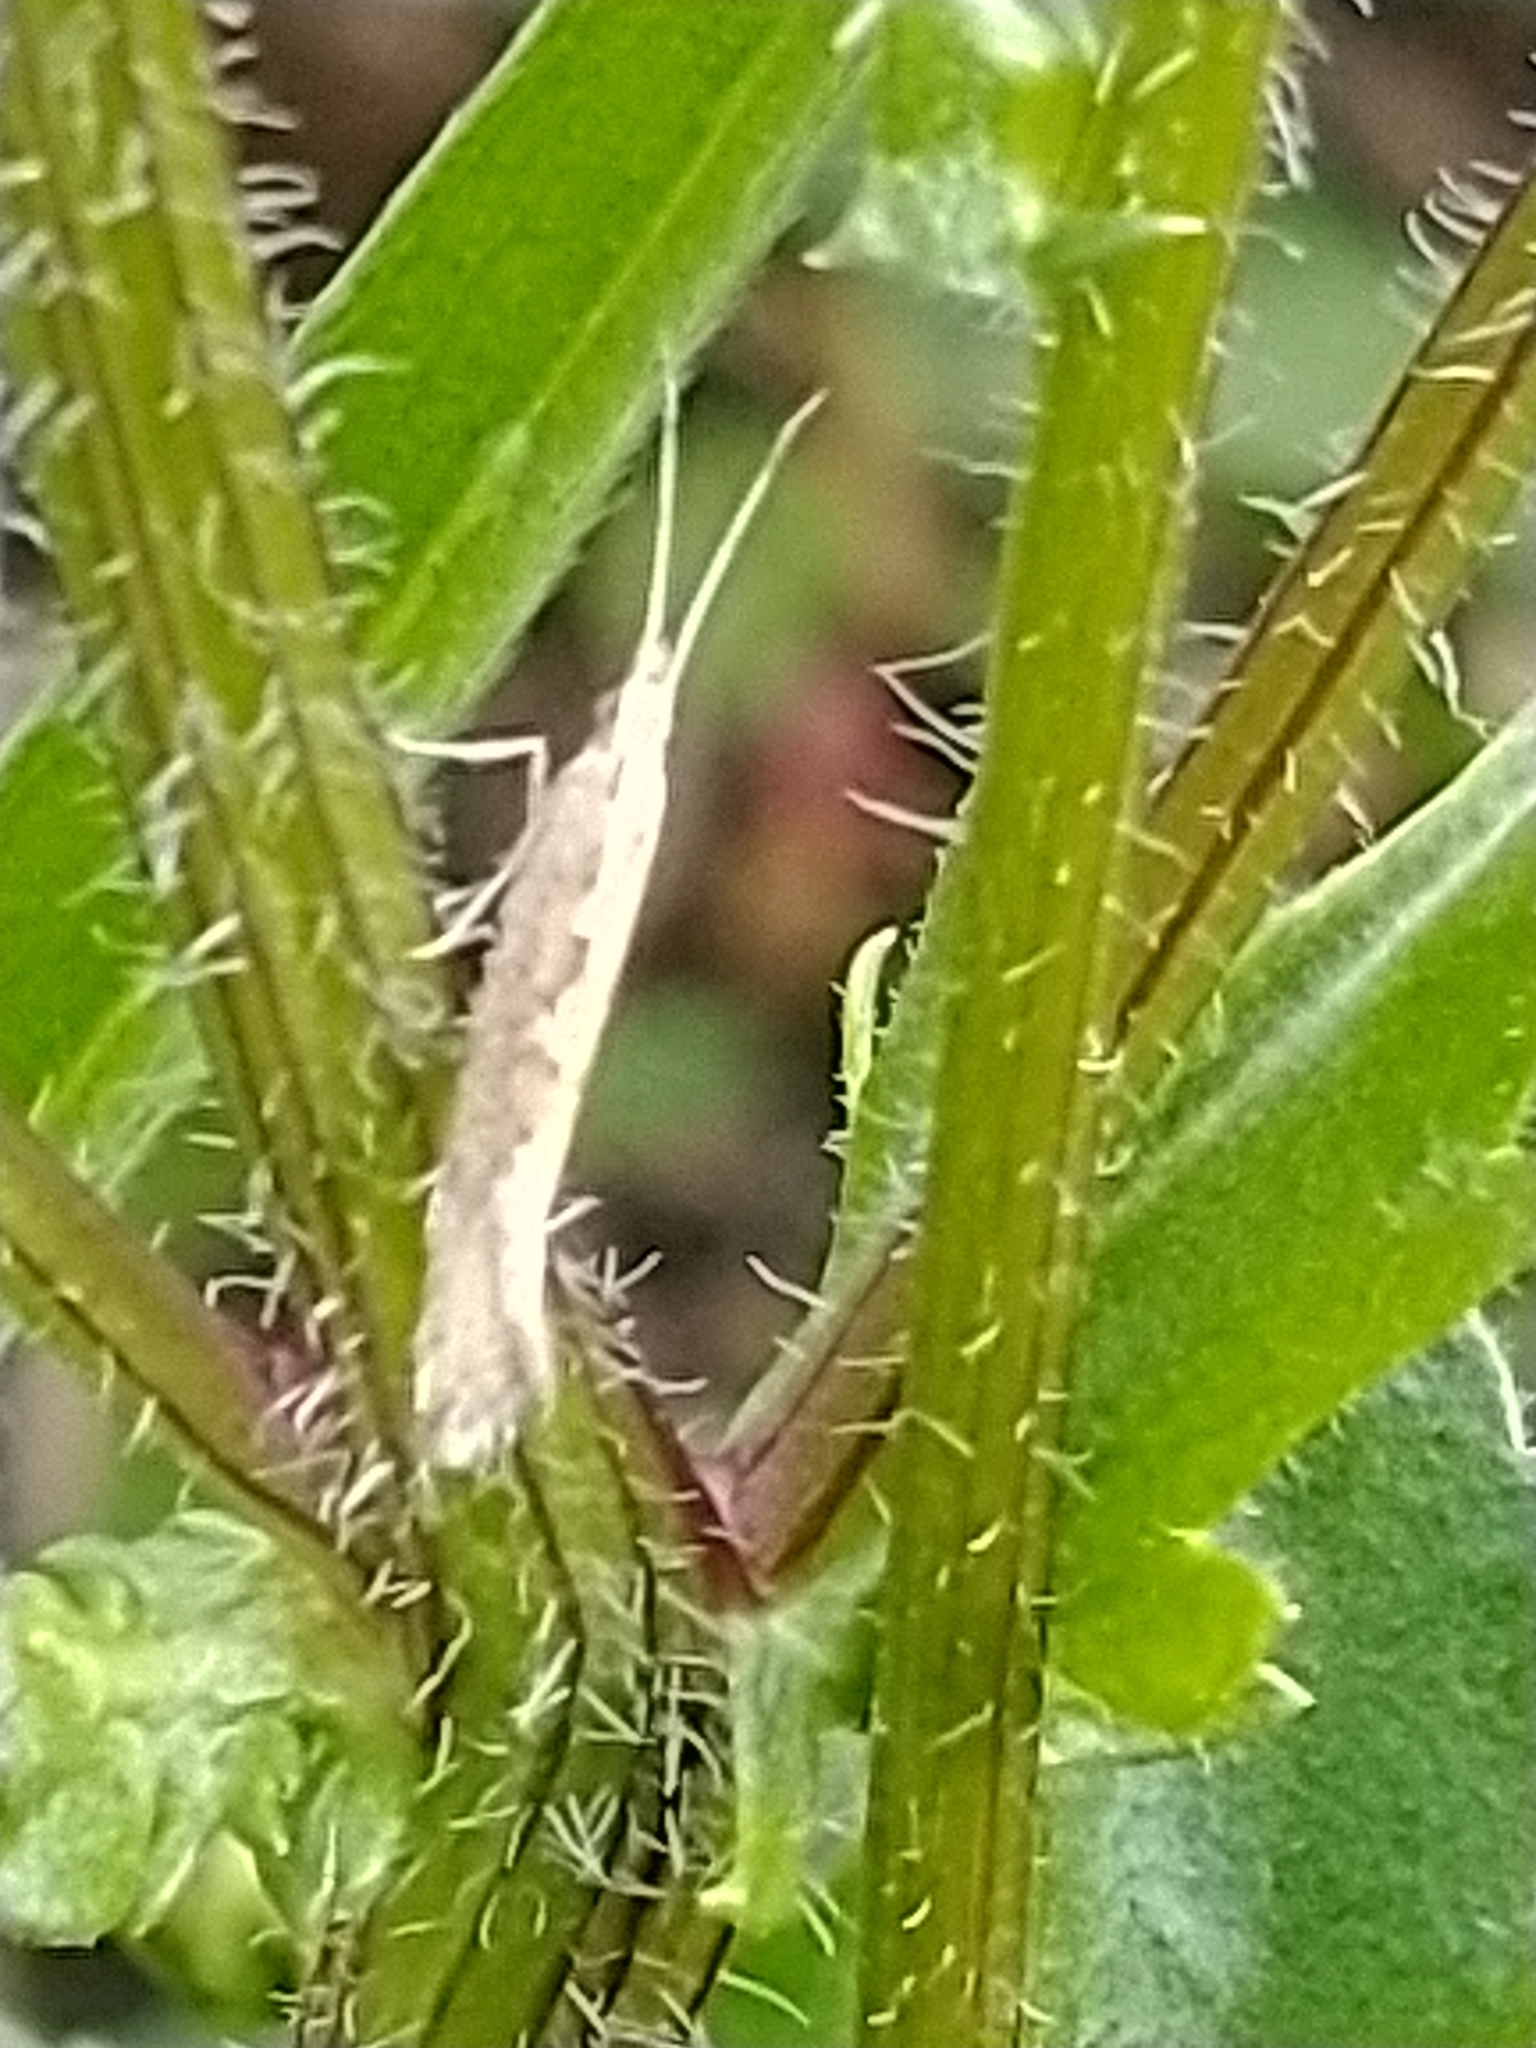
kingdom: Animalia
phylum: Arthropoda
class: Insecta
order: Lepidoptera
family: Plutellidae
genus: Plutella
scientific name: Plutella xylostella
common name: Diamond-back moth
